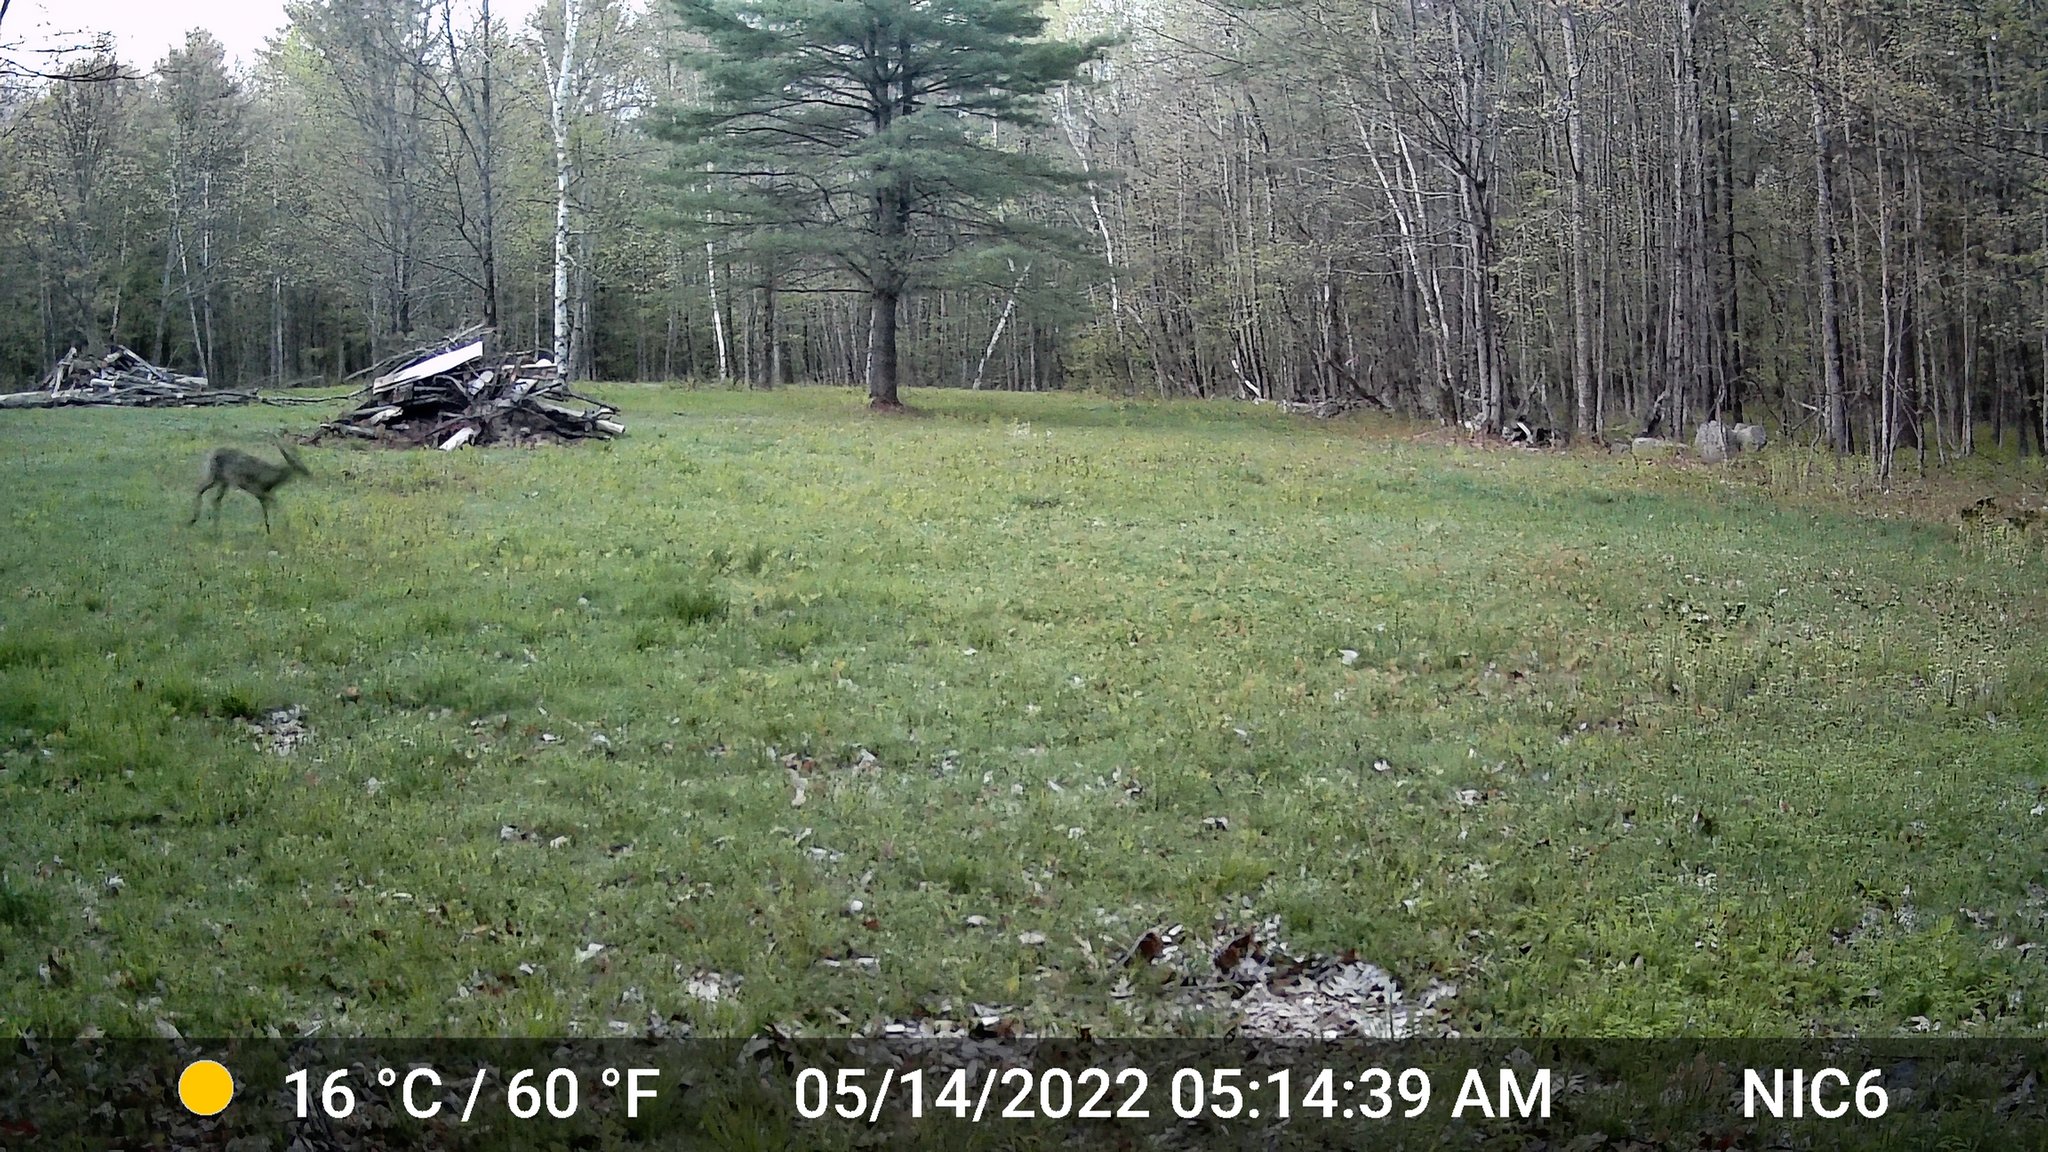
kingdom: Animalia
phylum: Chordata
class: Mammalia
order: Artiodactyla
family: Cervidae
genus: Odocoileus
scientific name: Odocoileus virginianus
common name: White-tailed deer
